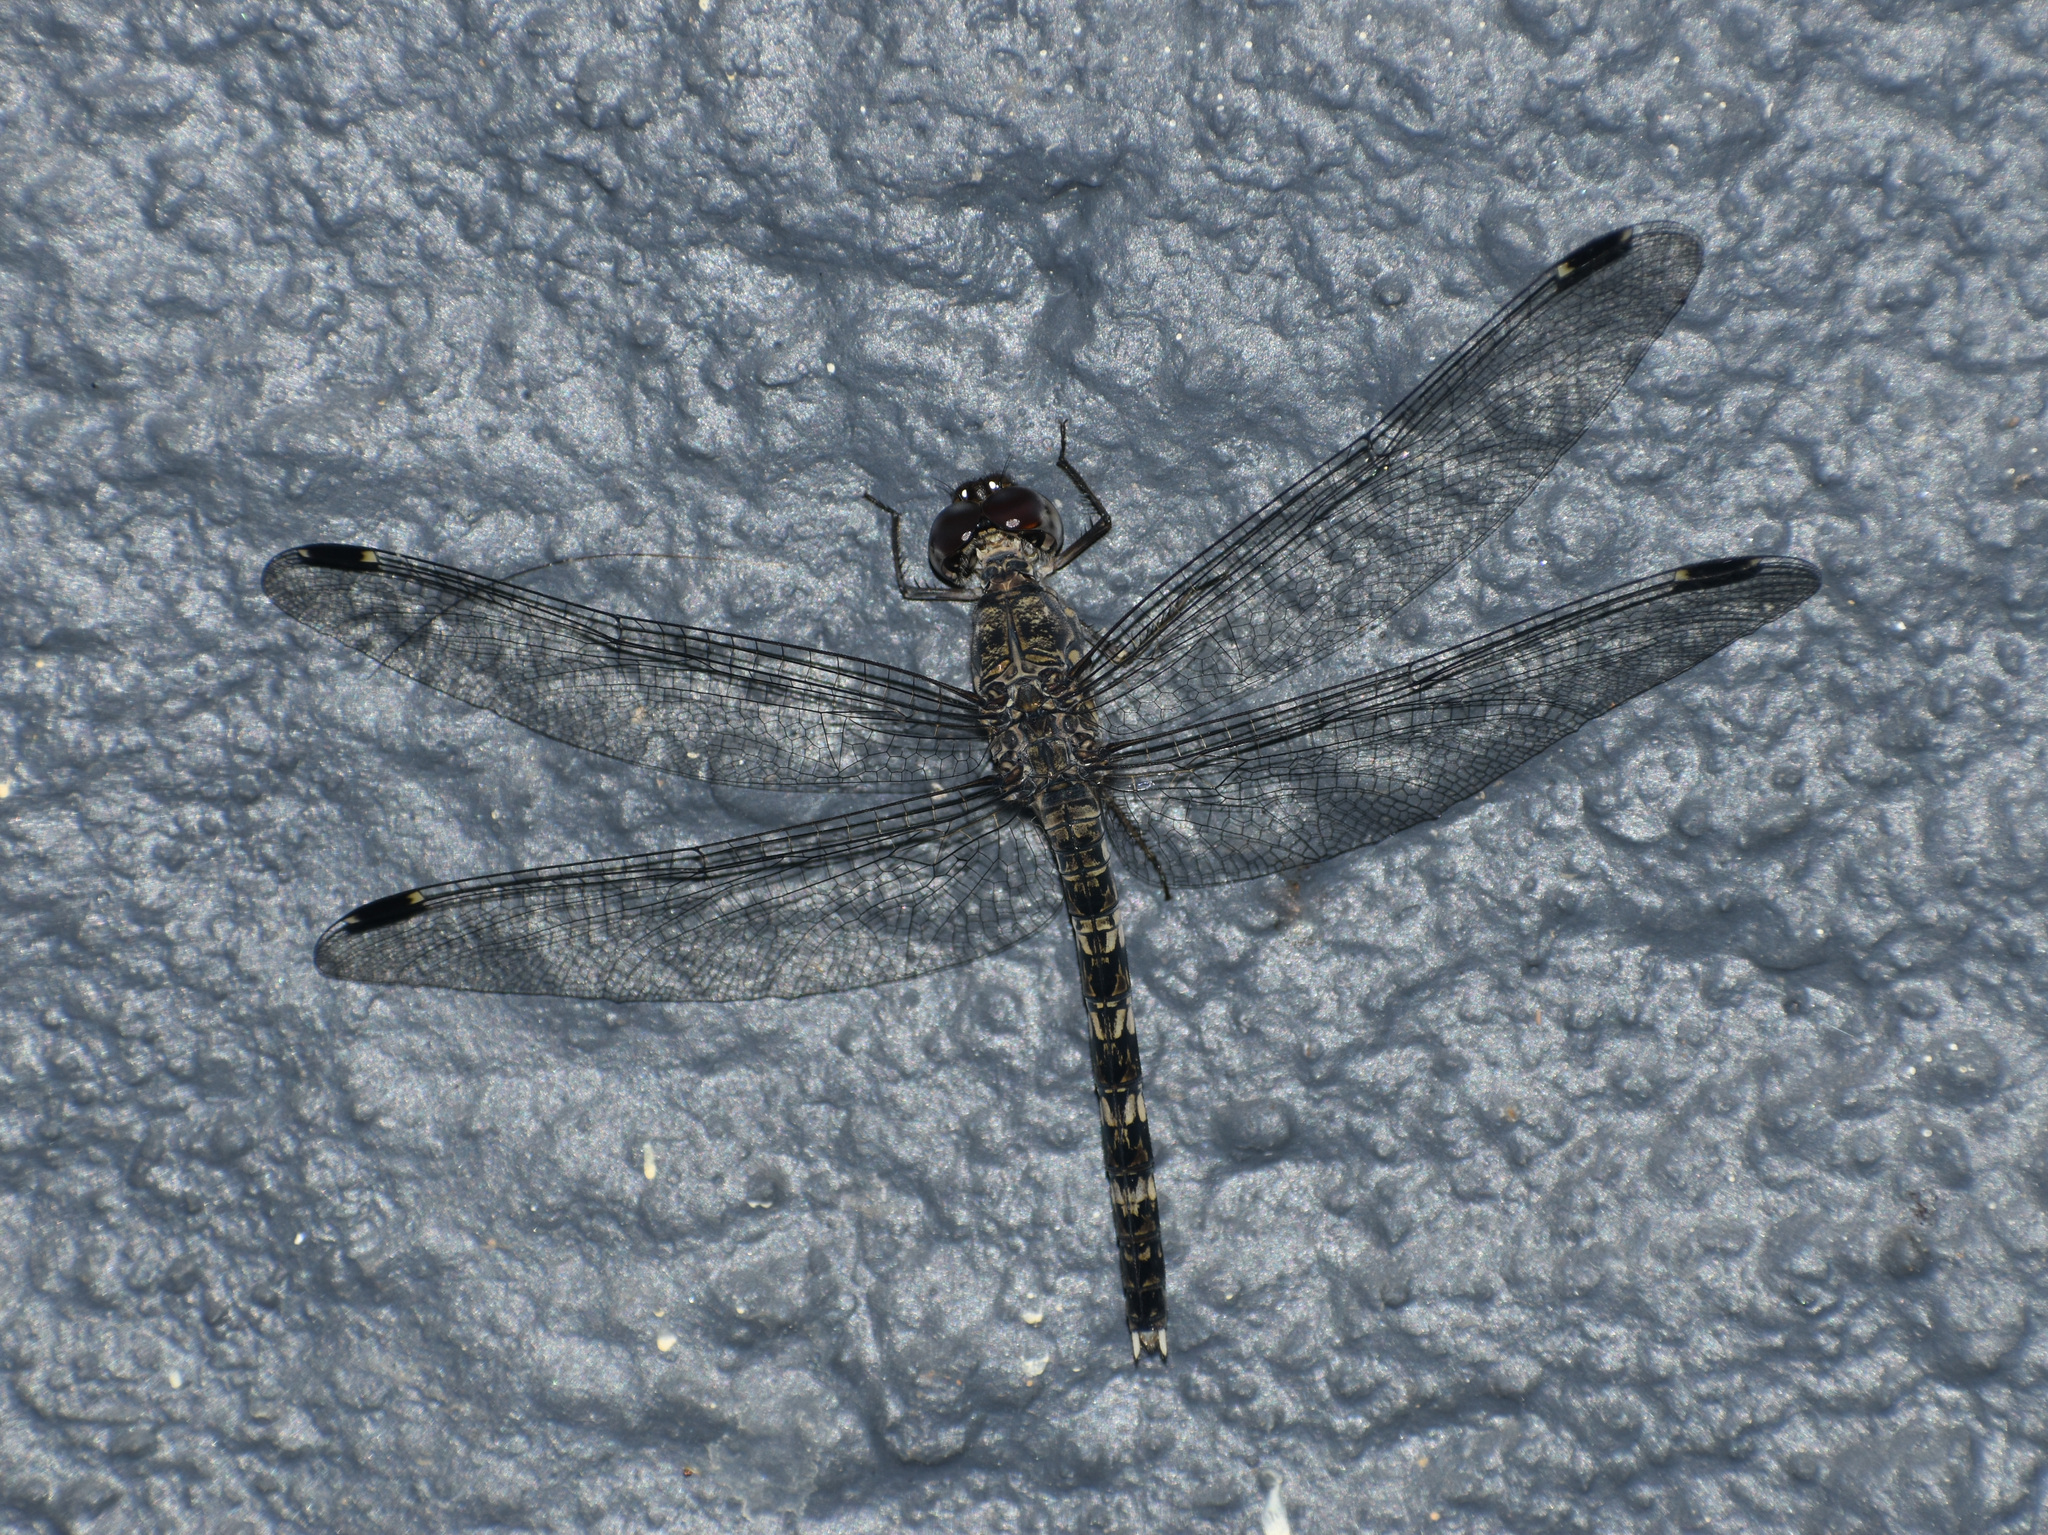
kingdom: Animalia
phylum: Arthropoda
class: Insecta
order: Odonata
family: Libellulidae
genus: Bradinopyga
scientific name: Bradinopyga geminata
